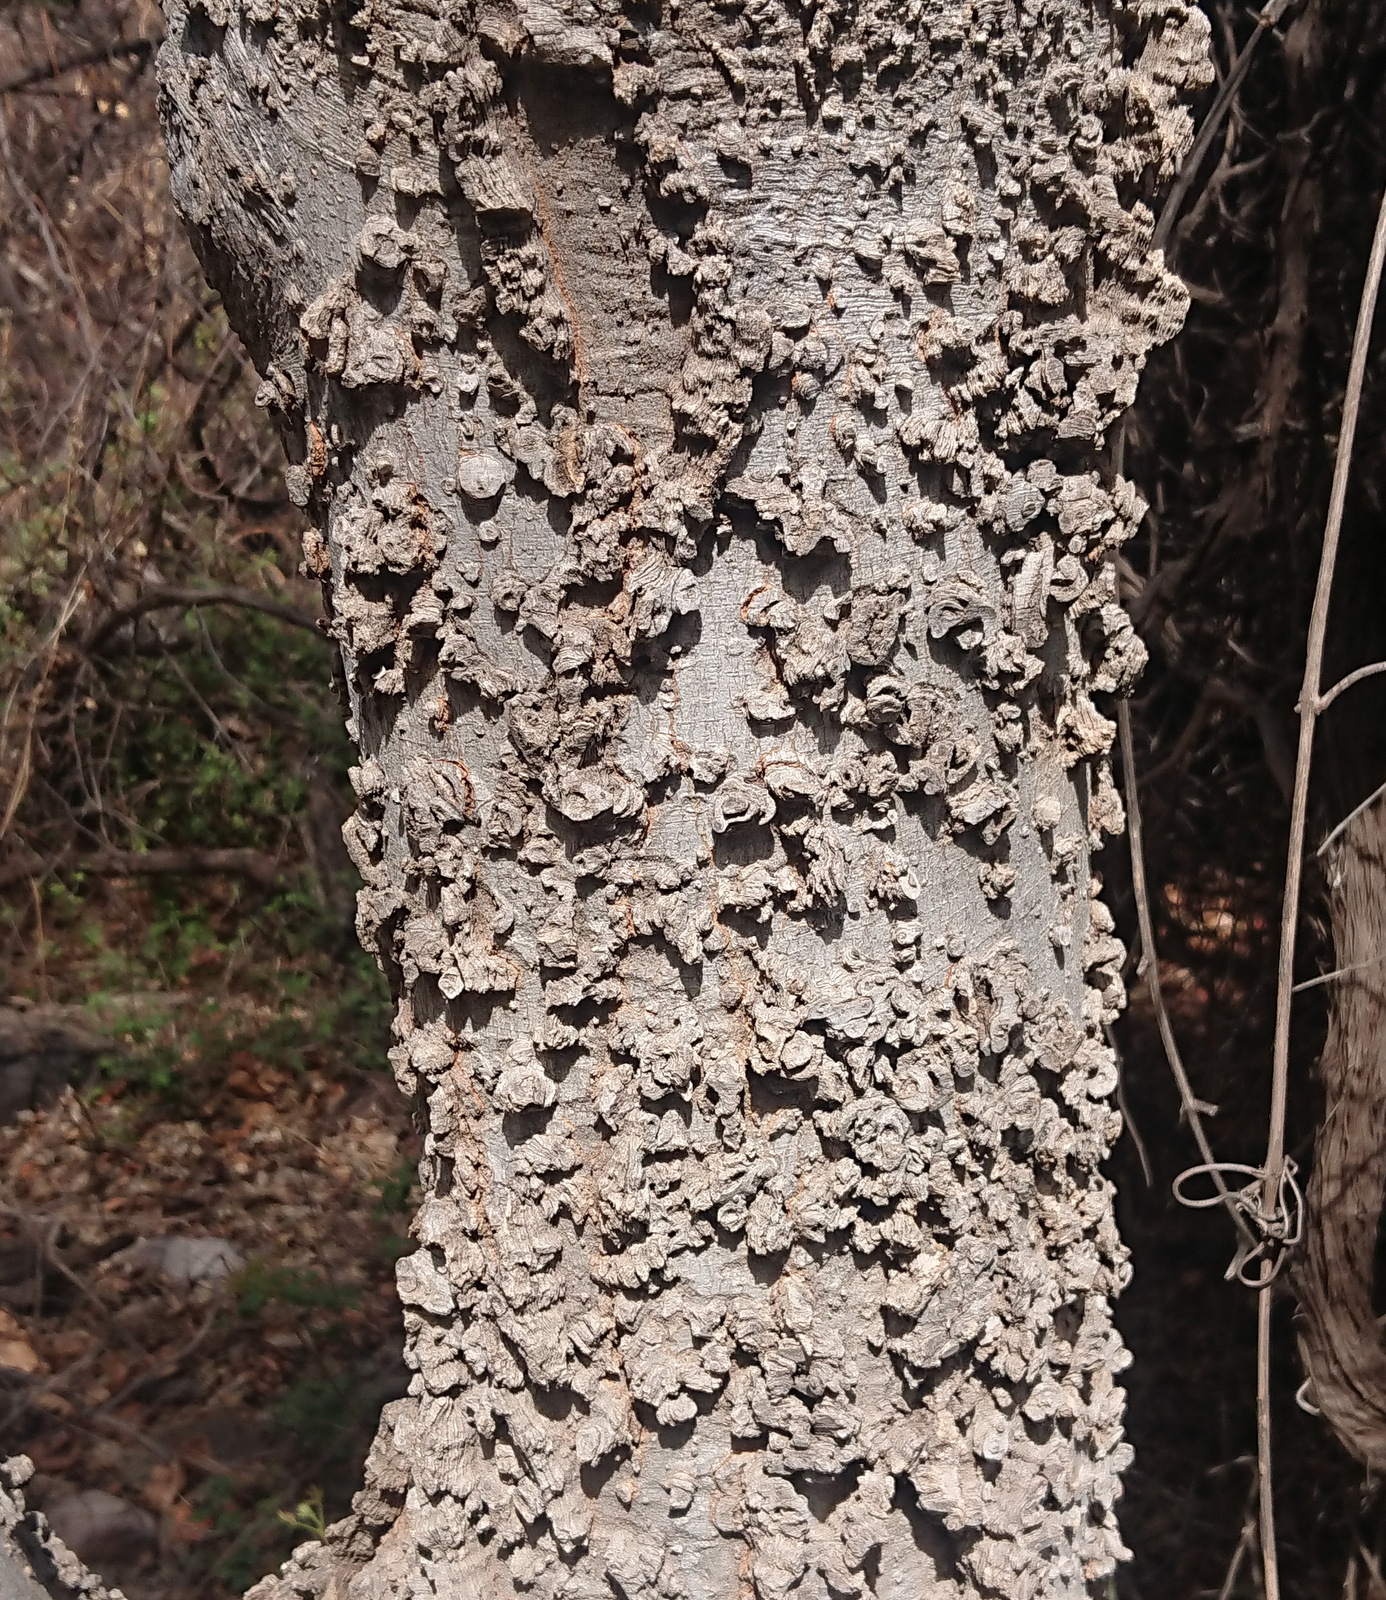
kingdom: Plantae
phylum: Tracheophyta
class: Magnoliopsida
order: Rosales
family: Cannabaceae
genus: Celtis
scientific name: Celtis reticulata
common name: Netleaf hackberry
